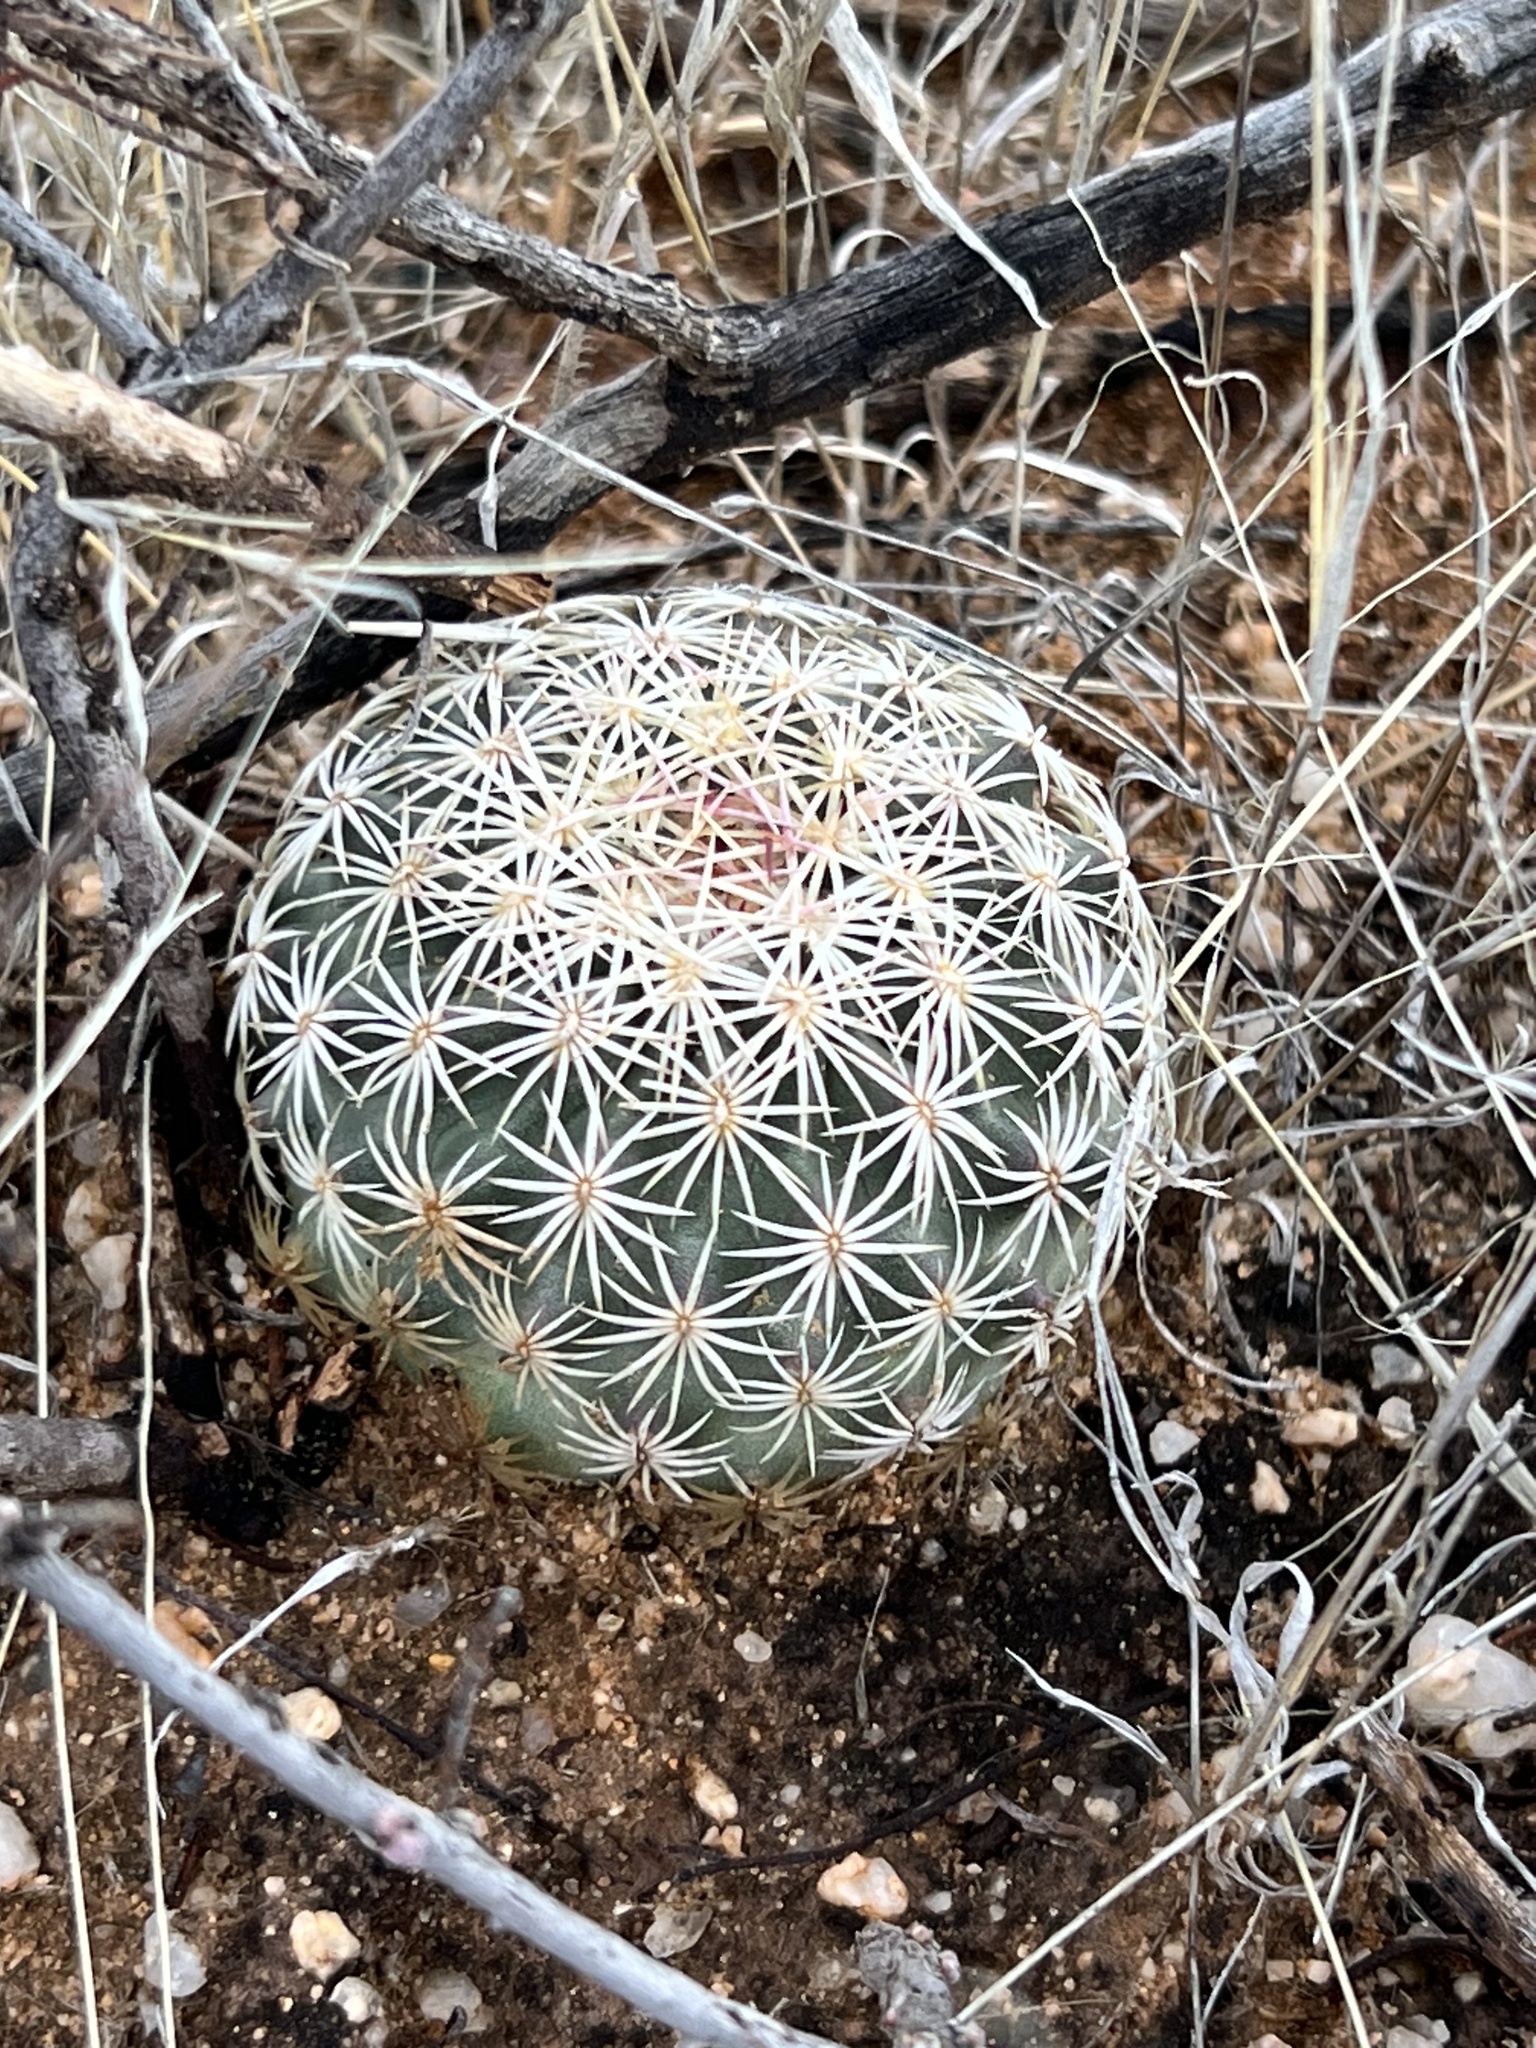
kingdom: Plantae
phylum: Tracheophyta
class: Magnoliopsida
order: Caryophyllales
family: Cactaceae
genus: Sclerocactus
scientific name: Sclerocactus johnsonii
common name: Eight-spine fishhook cactus
